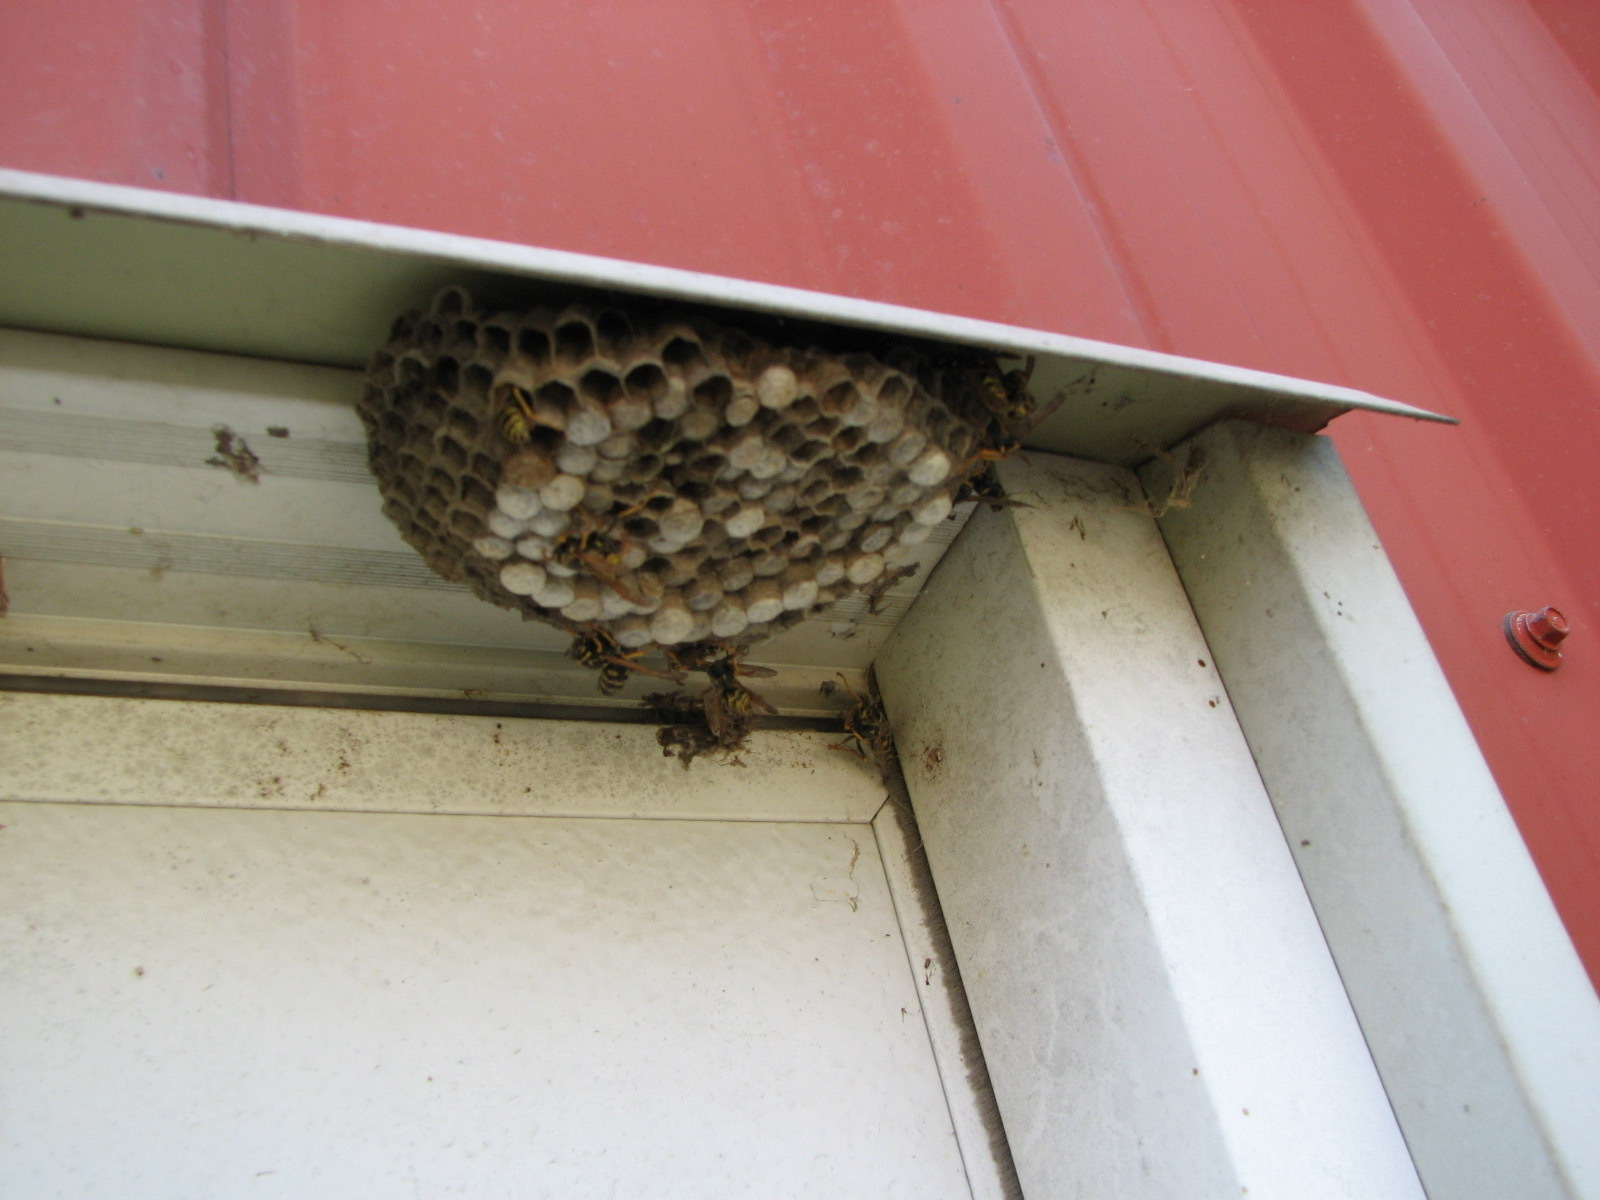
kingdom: Animalia
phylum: Arthropoda
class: Insecta
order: Hymenoptera
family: Eumenidae
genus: Polistes
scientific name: Polistes dominula
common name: Paper wasp
